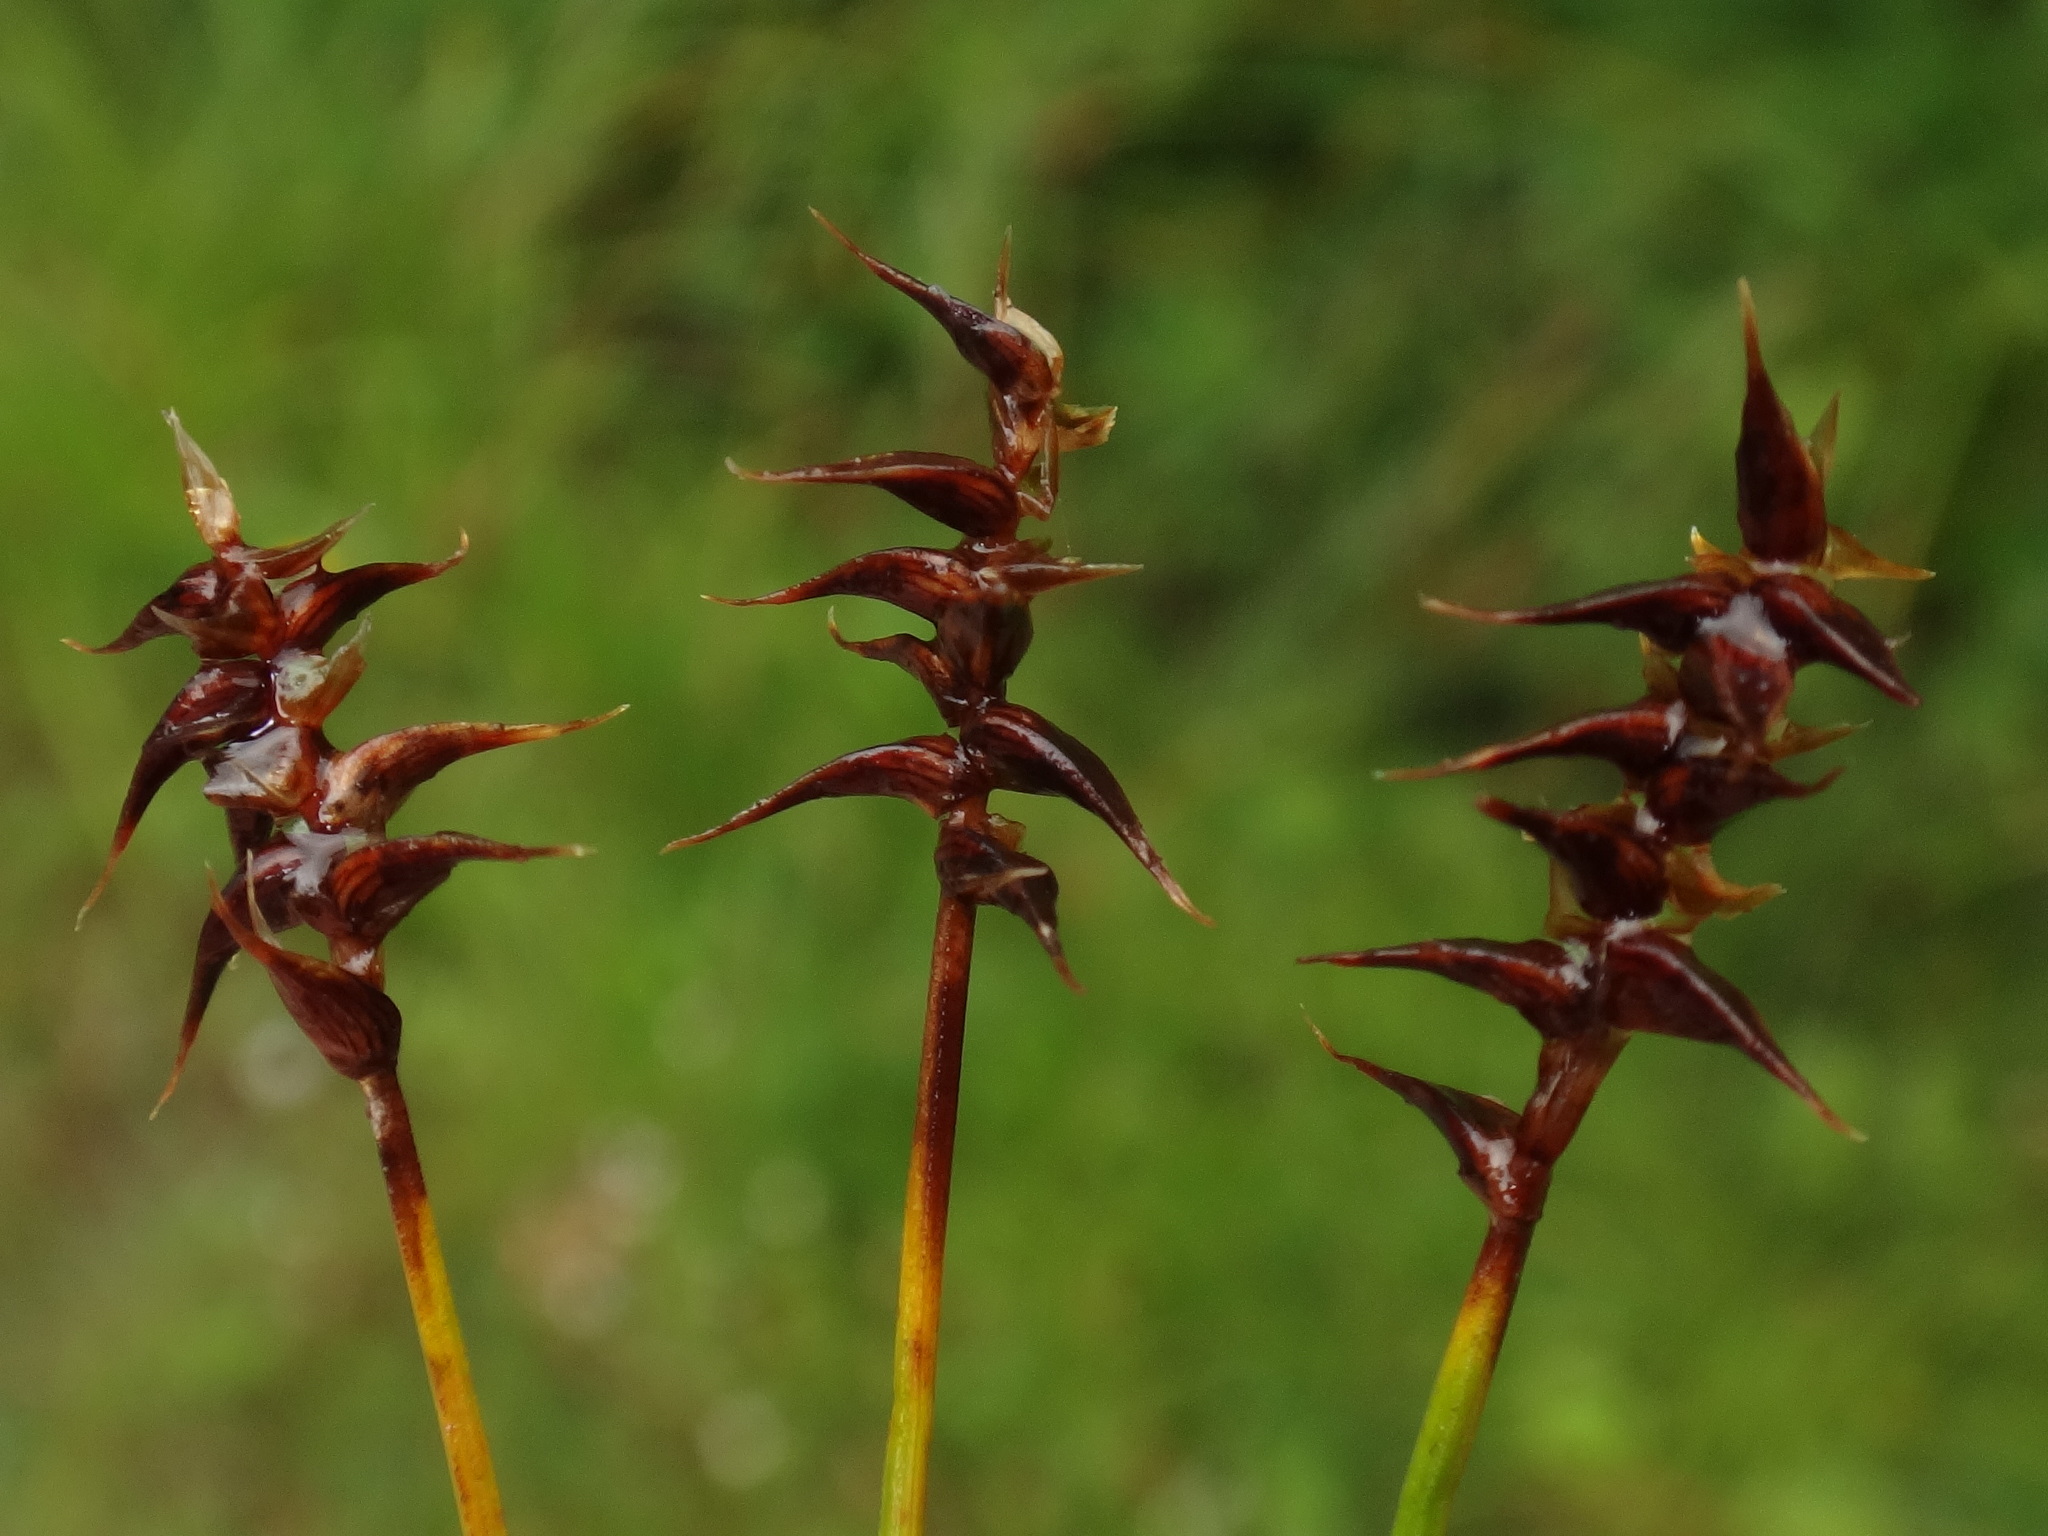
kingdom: Plantae
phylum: Tracheophyta
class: Liliopsida
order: Poales
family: Cyperaceae
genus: Carex
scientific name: Carex davalliana
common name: Davall's sedge
